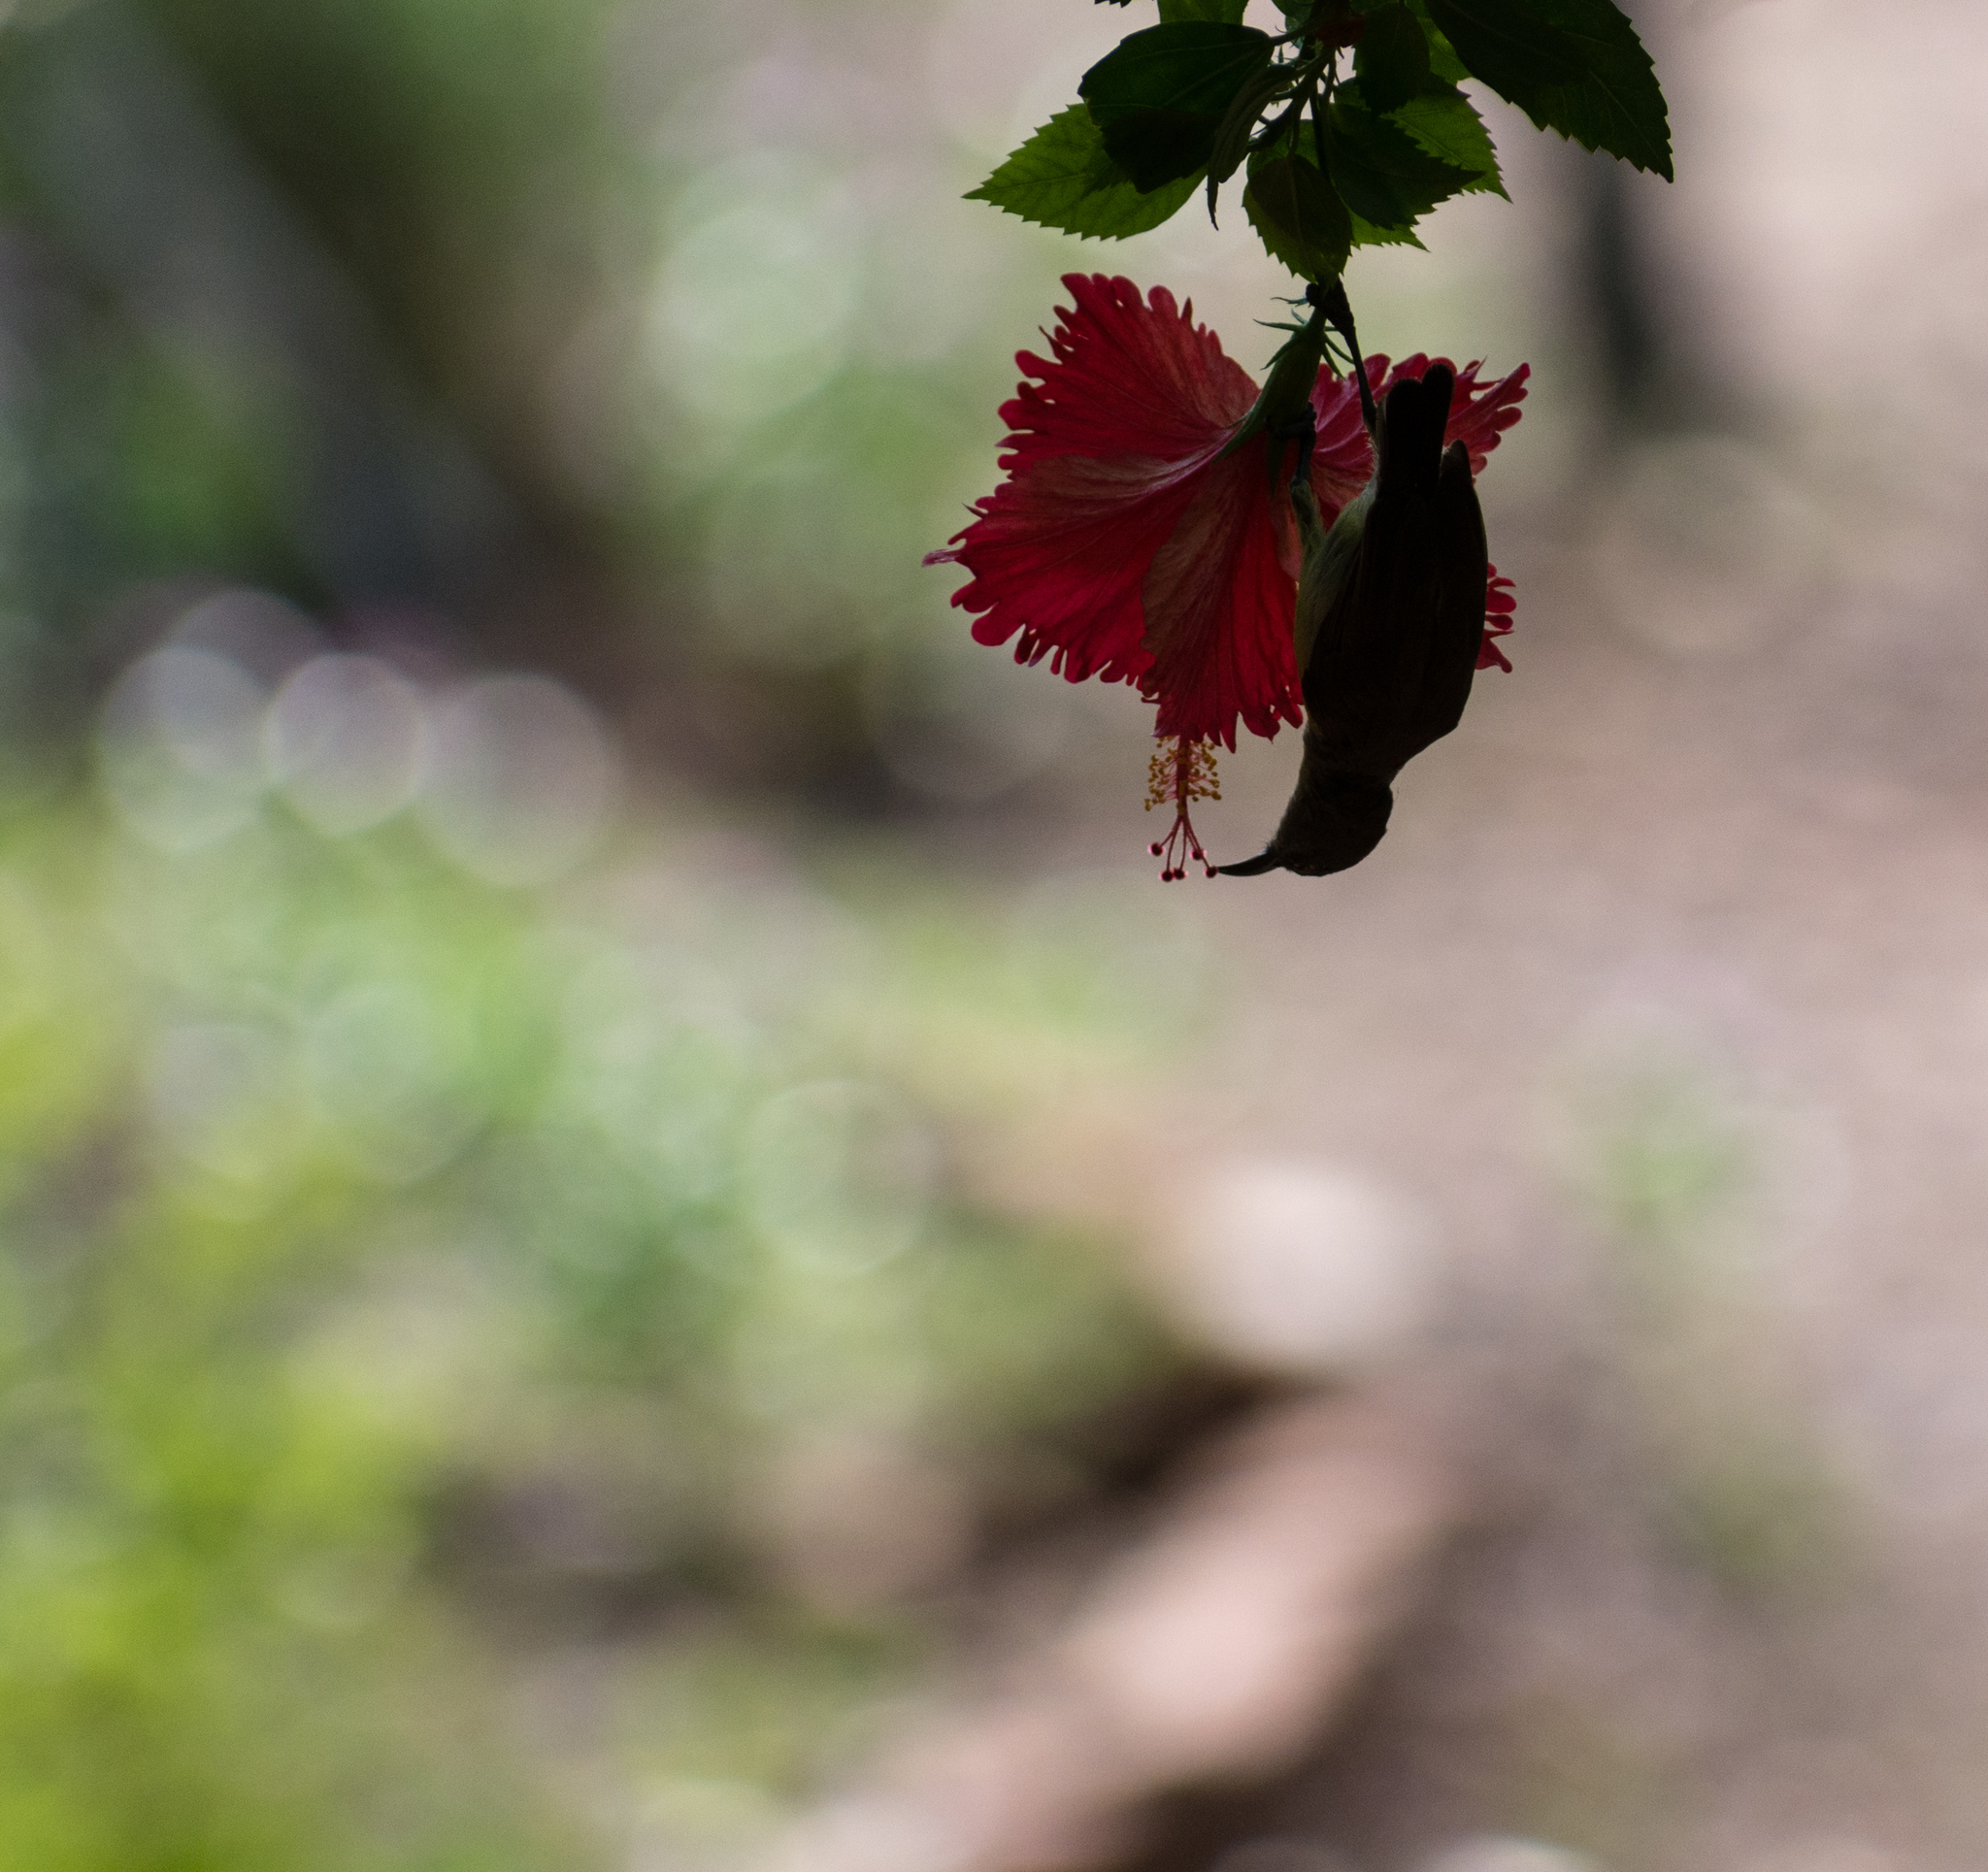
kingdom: Animalia
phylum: Chordata
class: Aves
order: Passeriformes
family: Nectariniidae
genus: Leptocoma
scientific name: Leptocoma zeylonica
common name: Purple-rumped sunbird
